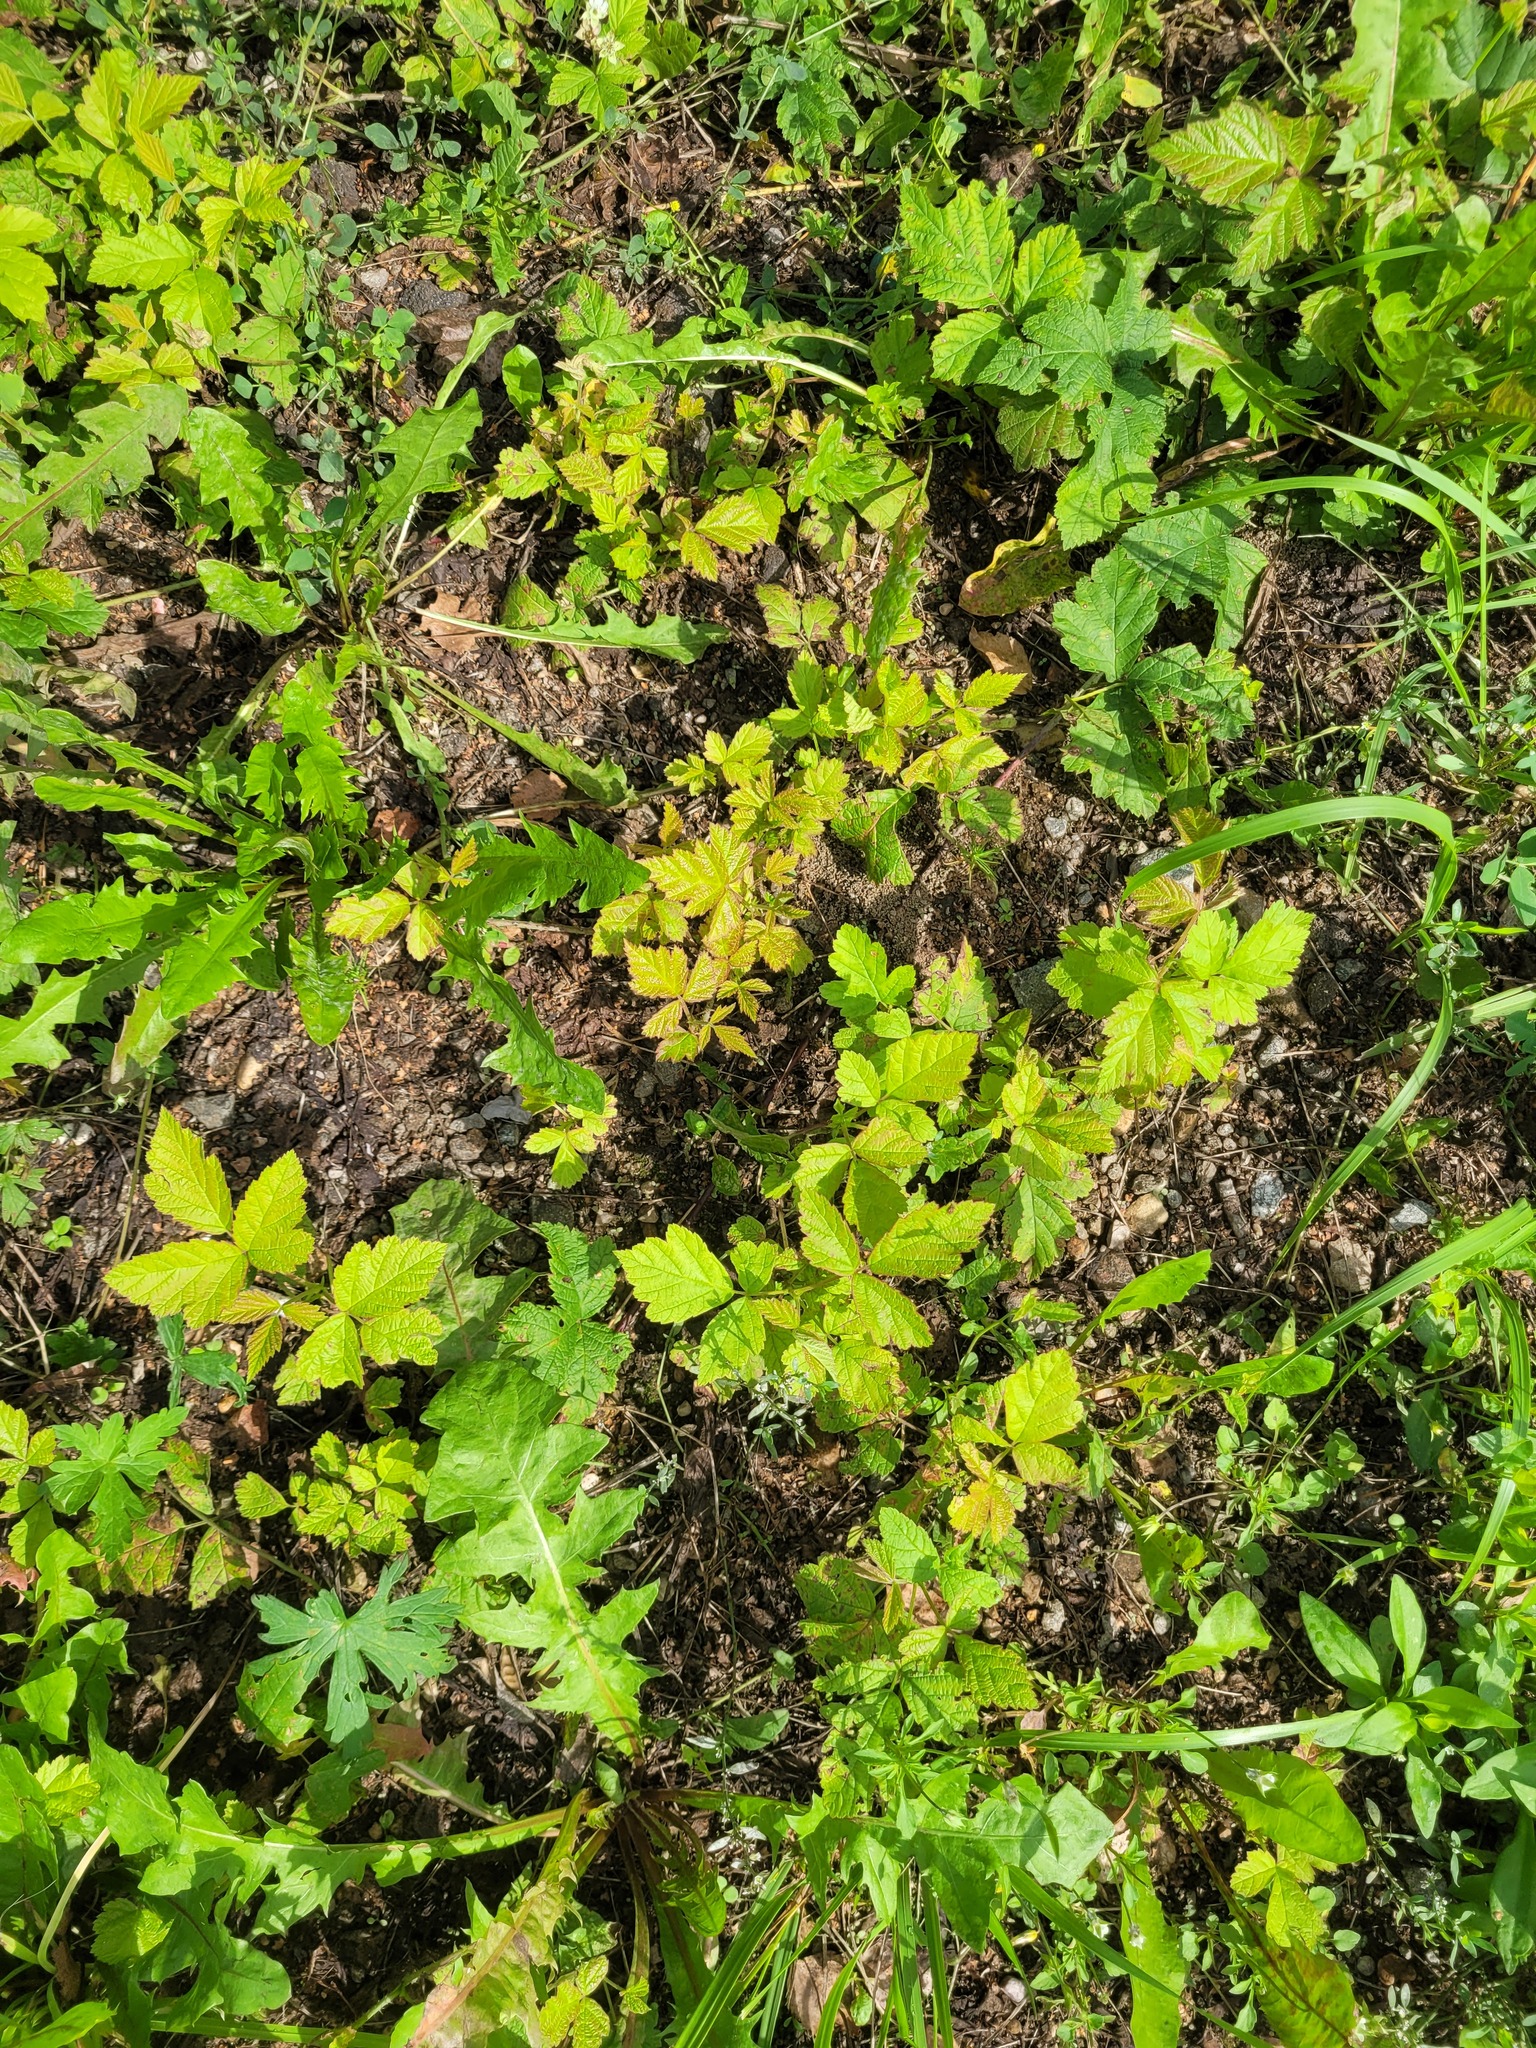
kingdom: Plantae
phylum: Tracheophyta
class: Magnoliopsida
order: Rosales
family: Rosaceae
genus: Rubus
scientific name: Rubus caesius
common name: Dewberry
